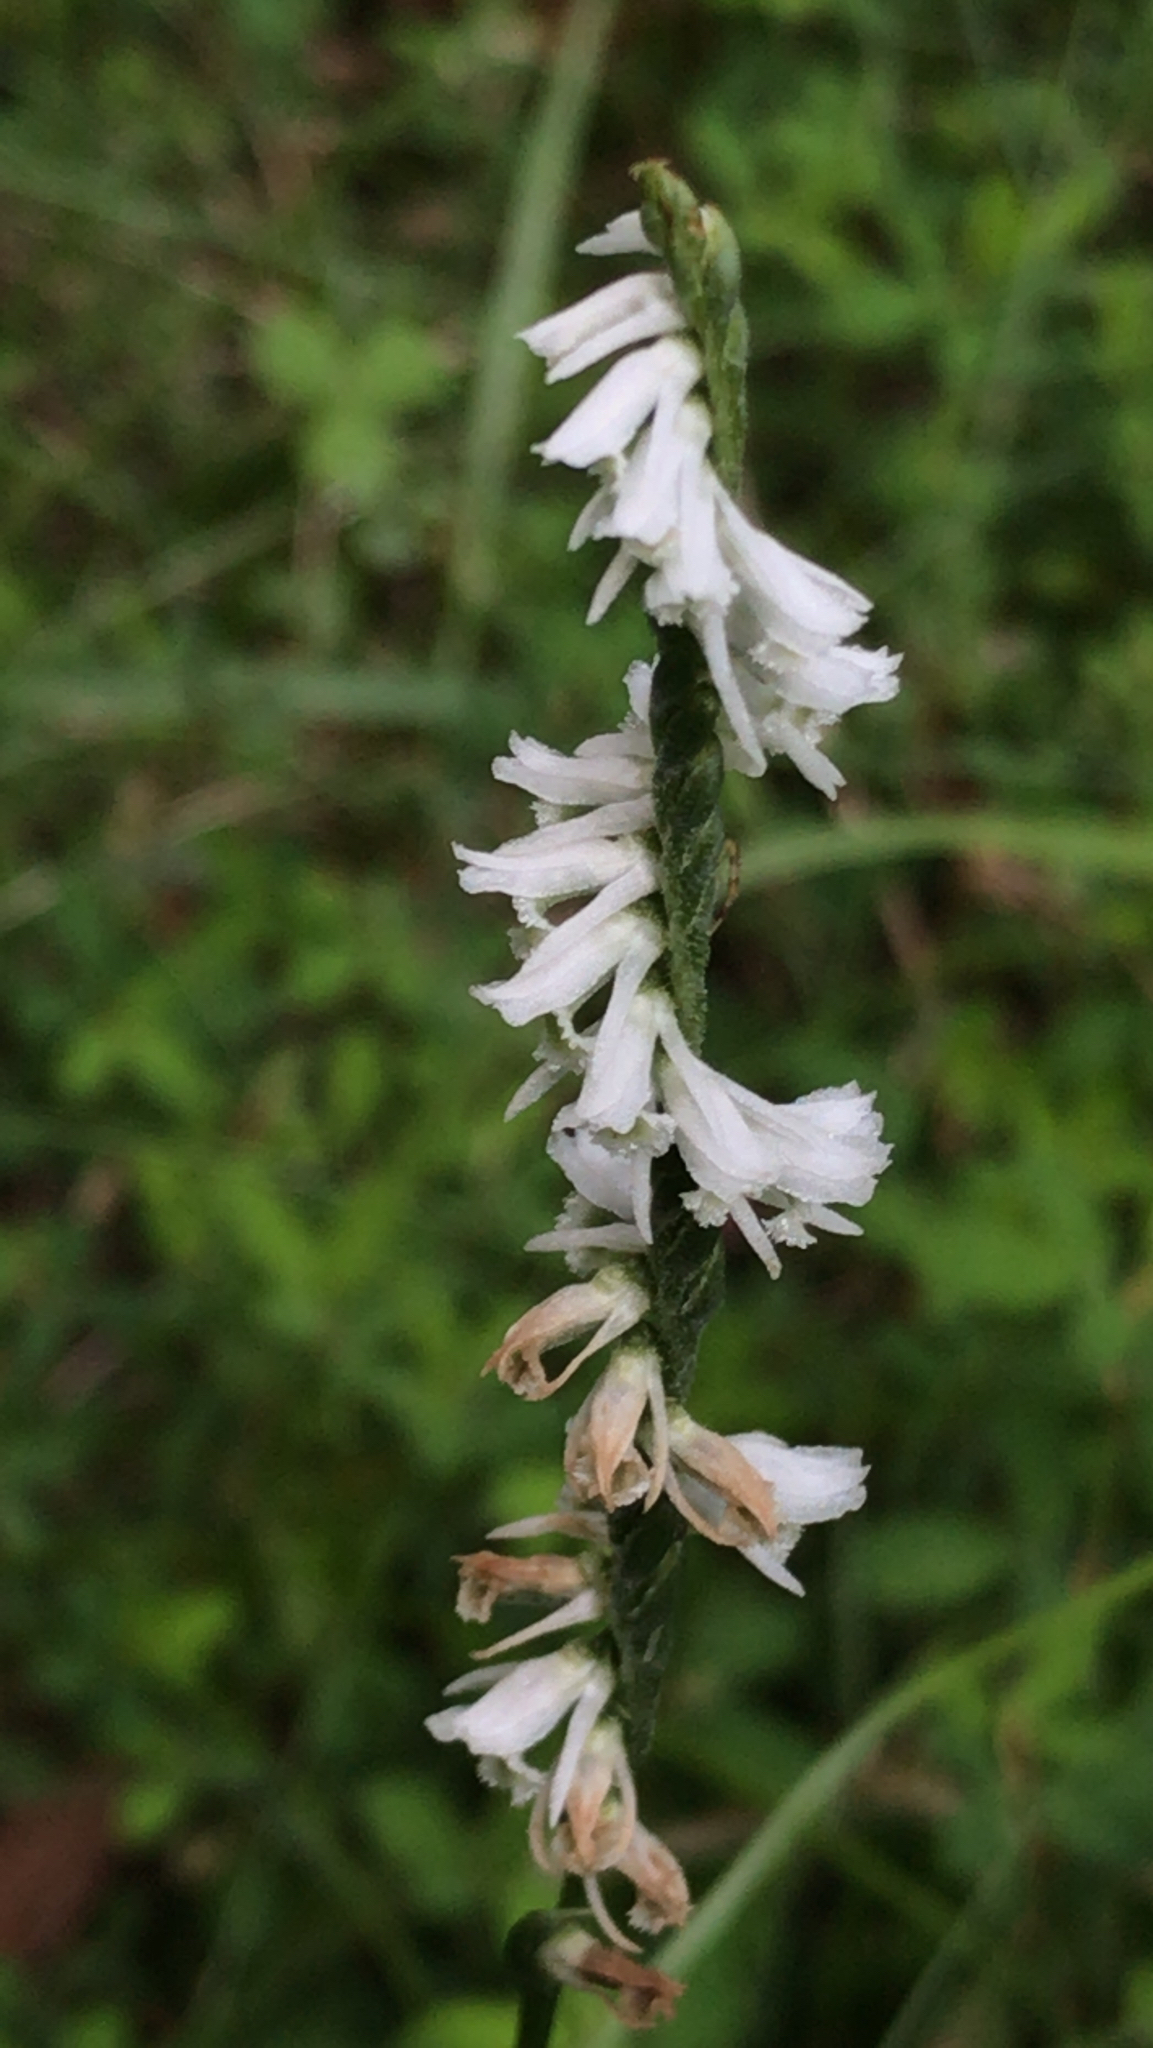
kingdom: Plantae
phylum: Tracheophyta
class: Liliopsida
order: Asparagales
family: Orchidaceae
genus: Spiranthes
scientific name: Spiranthes lacera
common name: Northern slender ladies'-tresses
